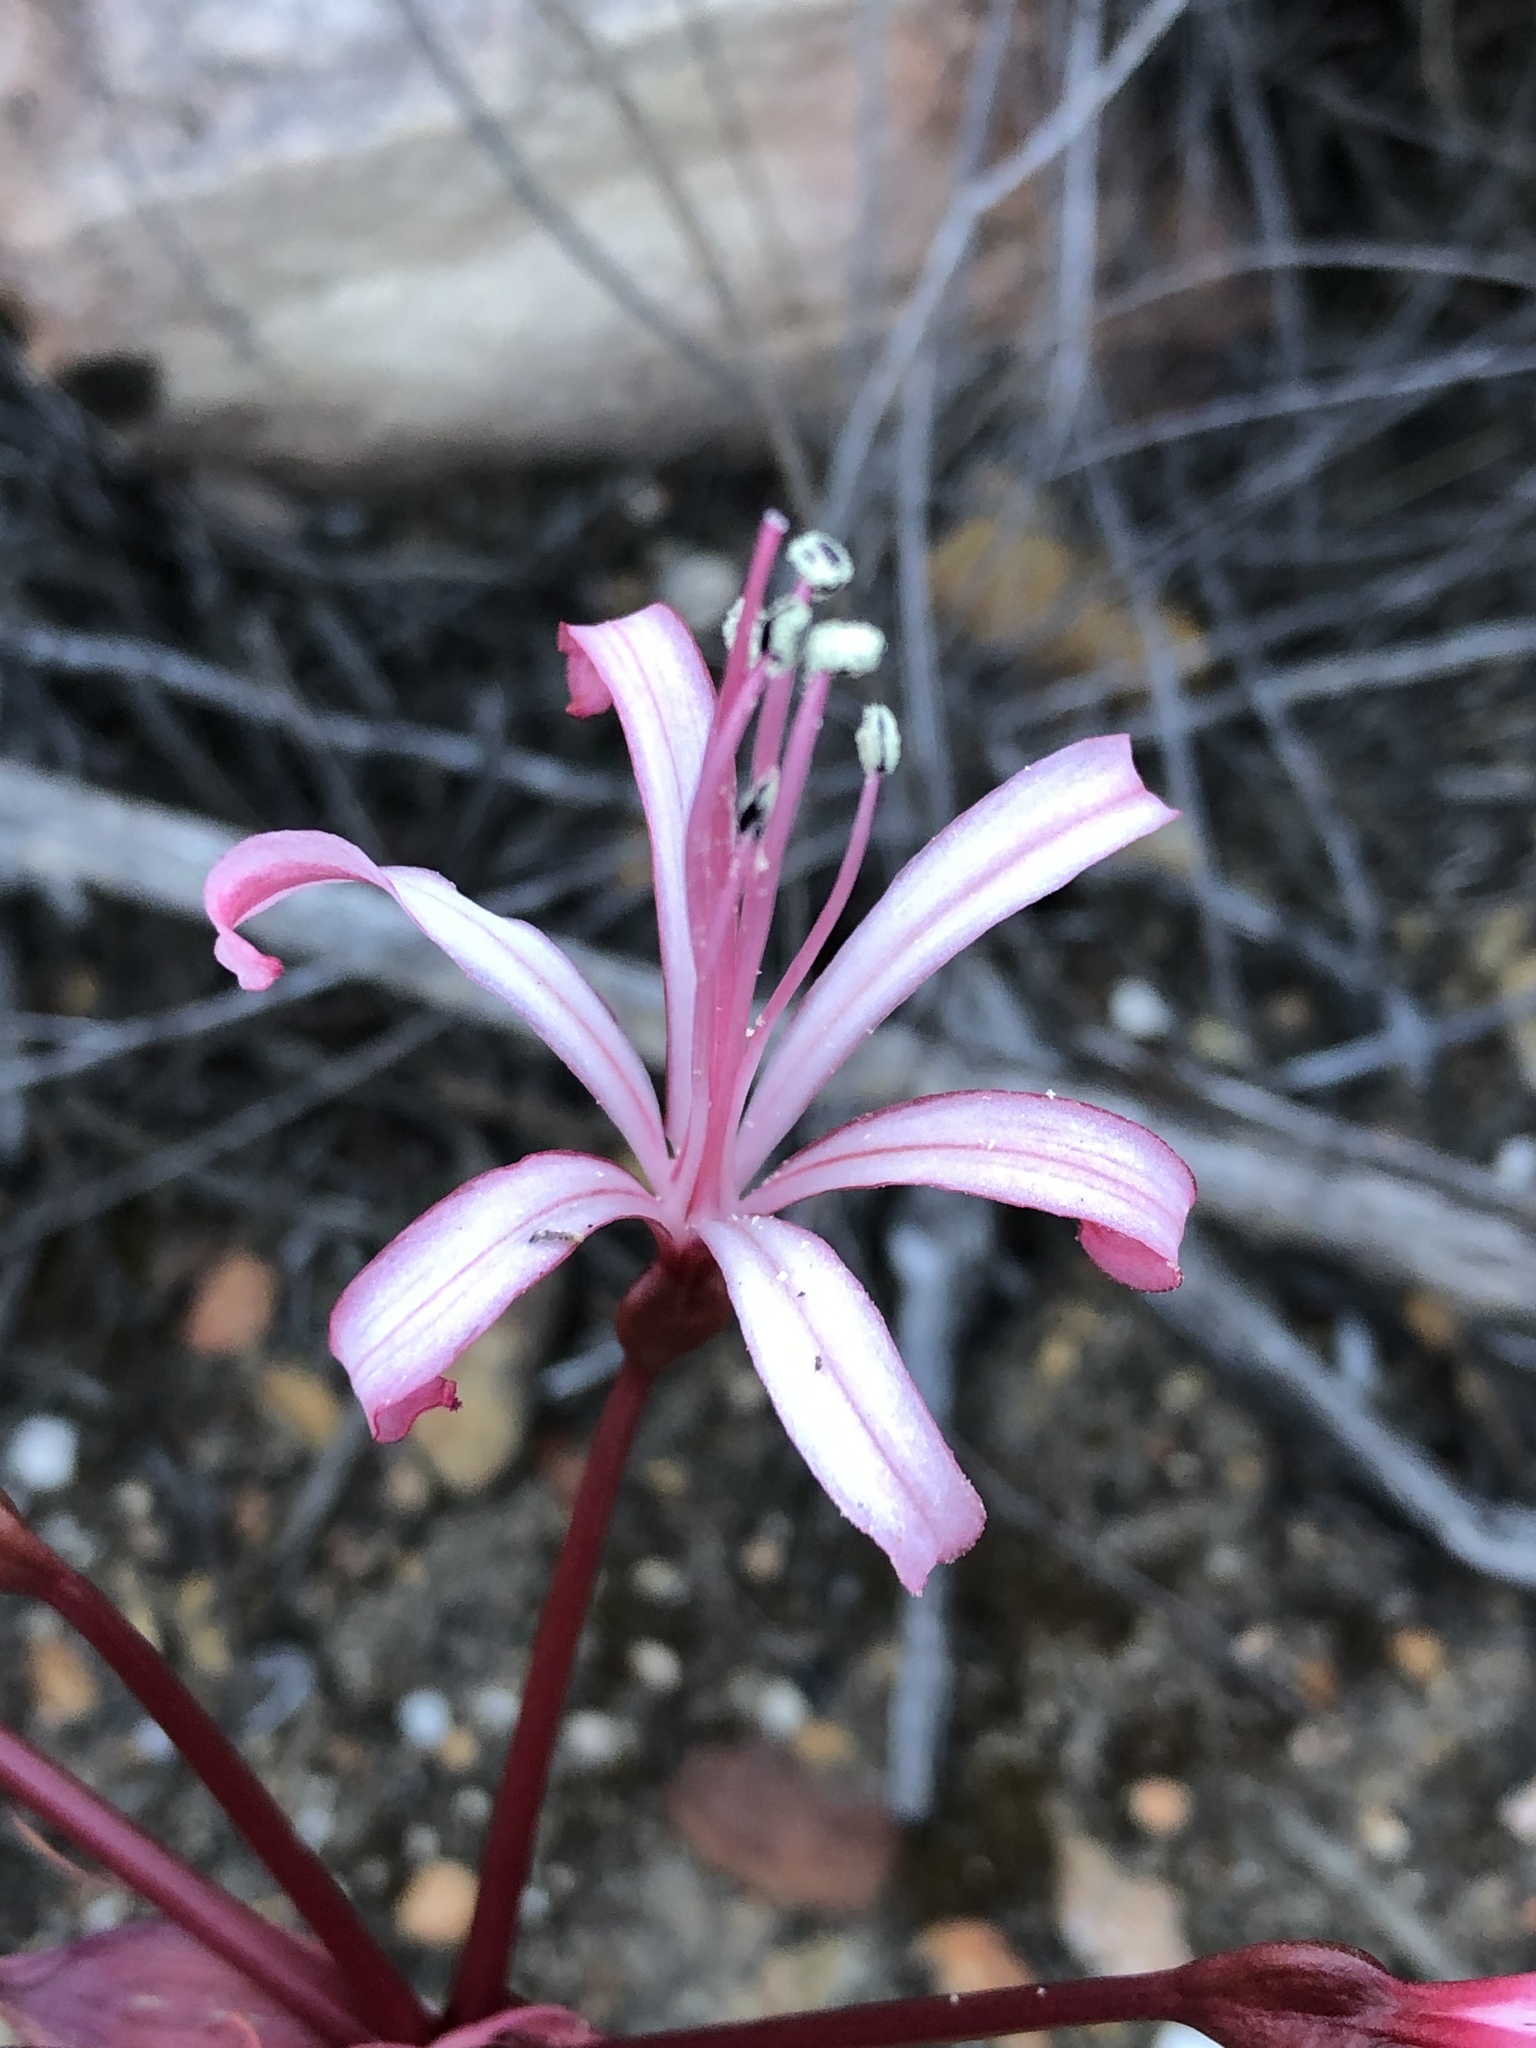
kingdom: Plantae
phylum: Tracheophyta
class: Liliopsida
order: Asparagales
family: Amaryllidaceae
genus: Brunsvigia
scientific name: Brunsvigia nervosa
